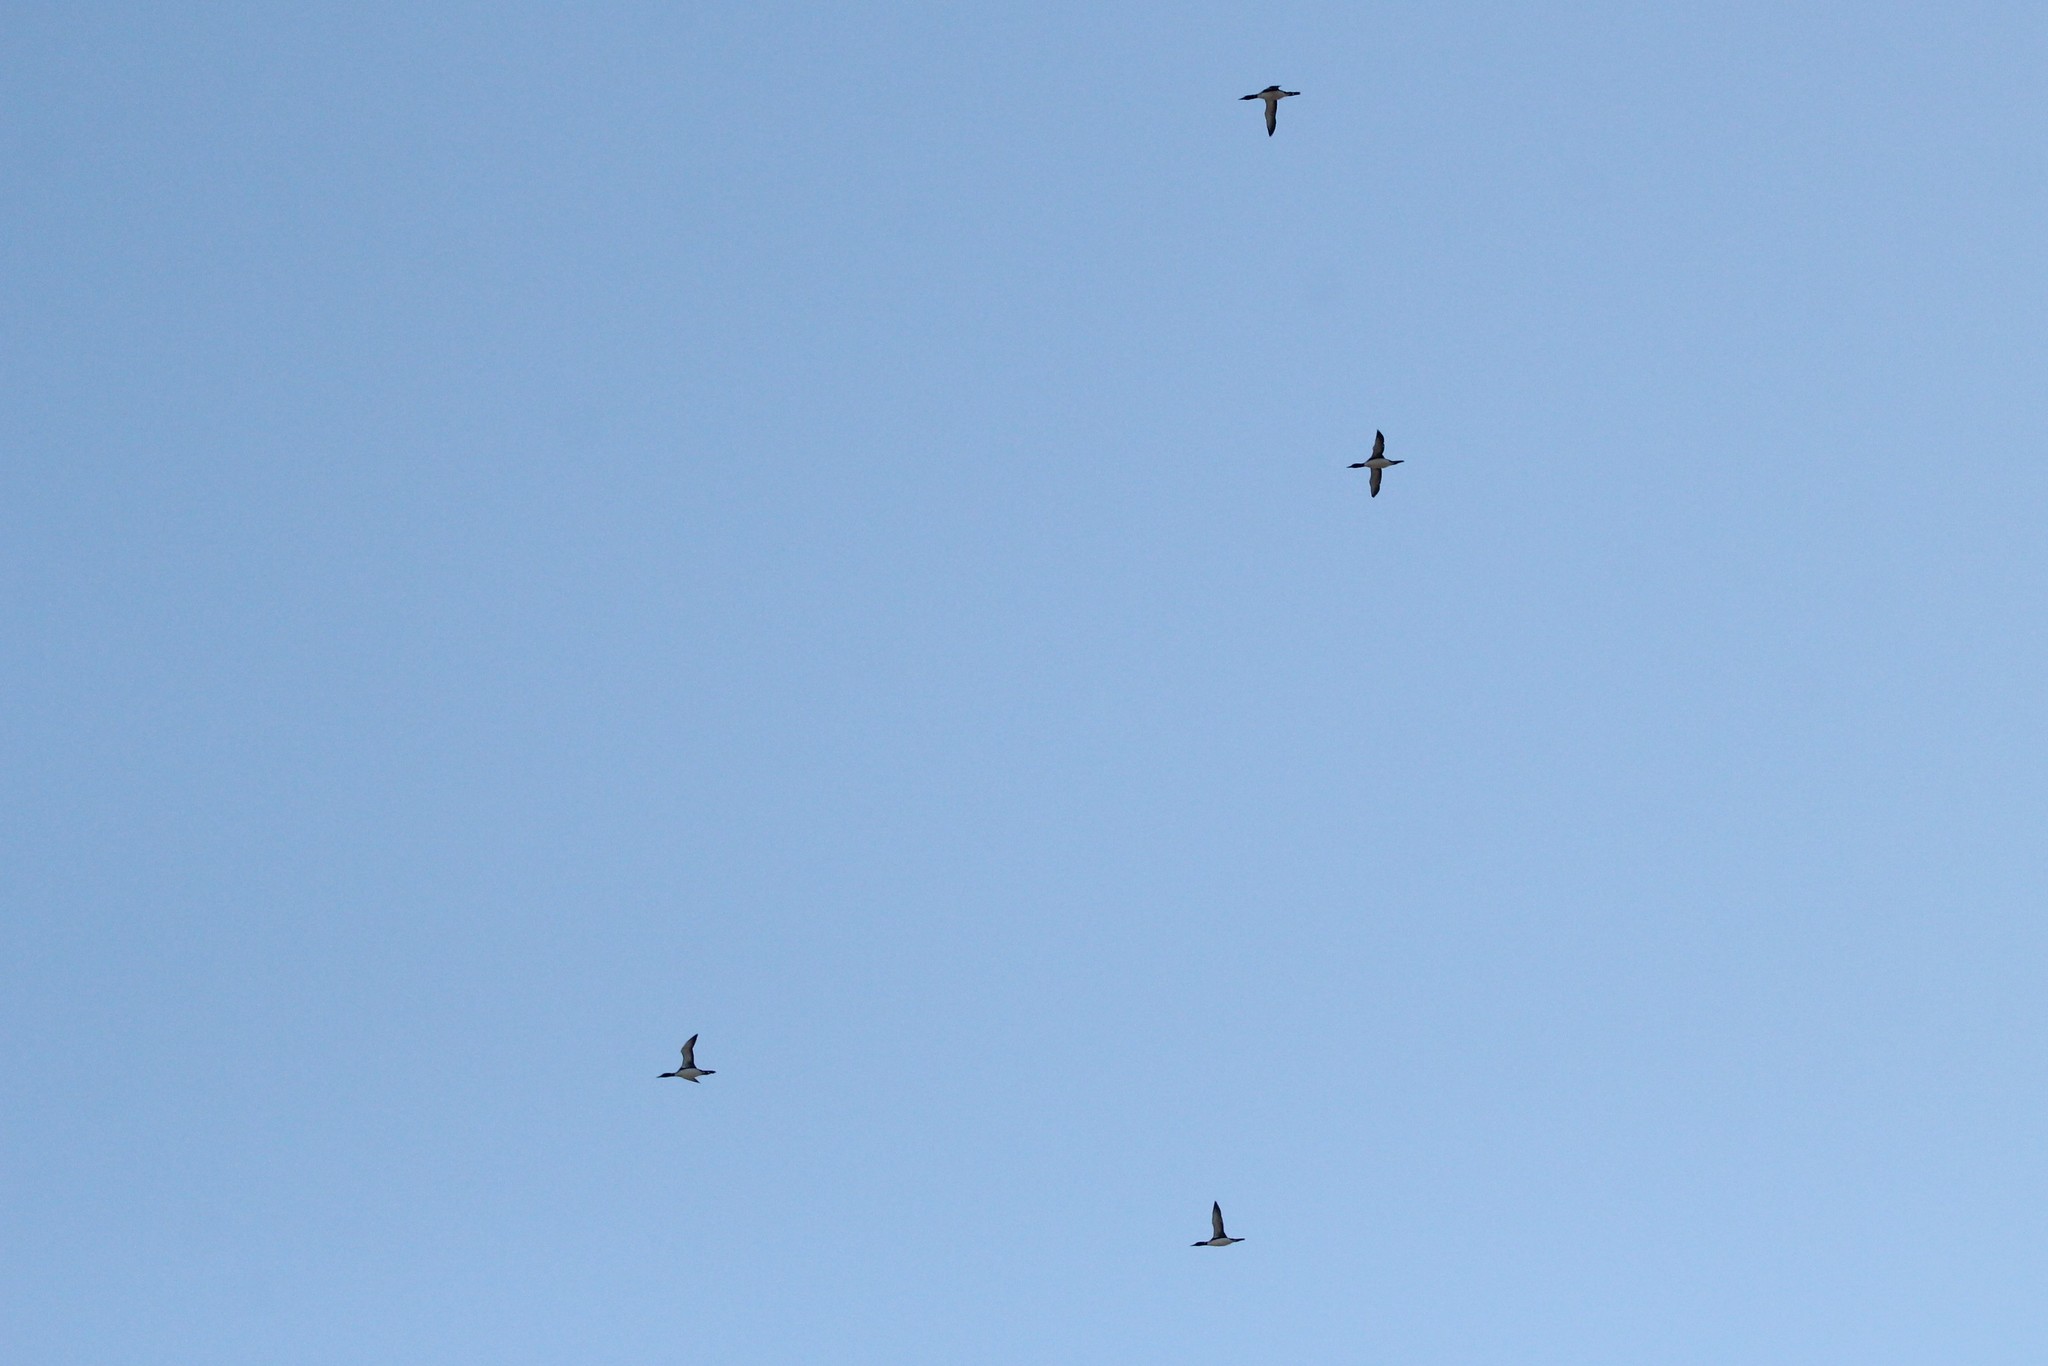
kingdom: Animalia
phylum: Chordata
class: Aves
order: Gaviiformes
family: Gaviidae
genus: Gavia
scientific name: Gavia immer
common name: Common loon
